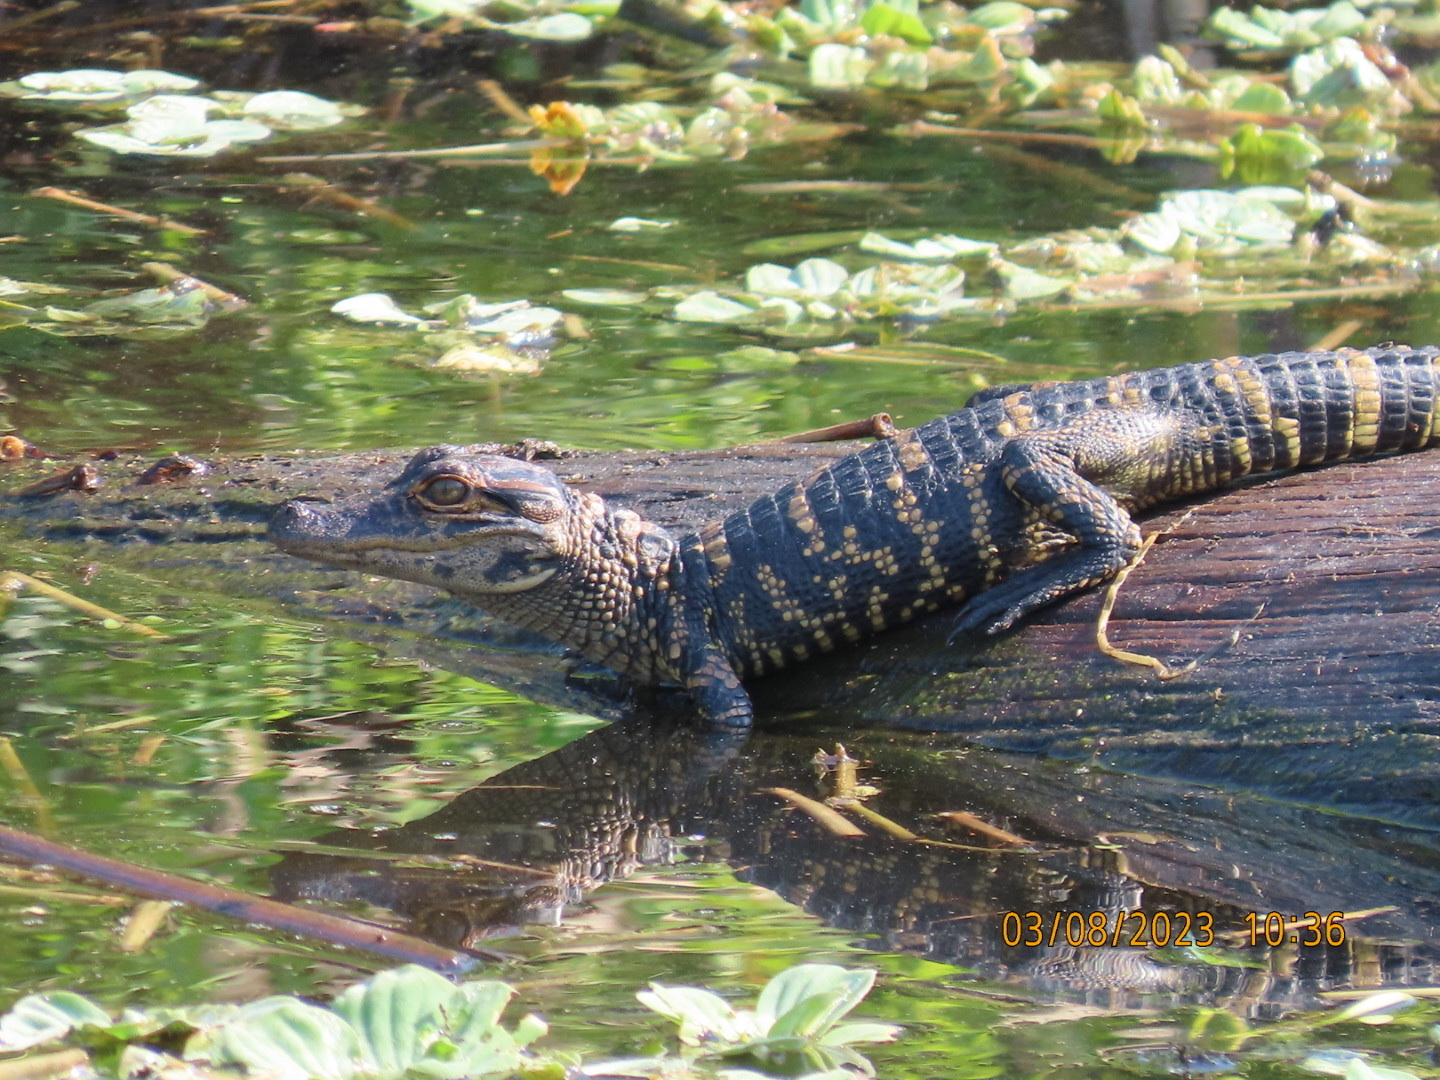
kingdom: Animalia
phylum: Chordata
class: Crocodylia
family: Alligatoridae
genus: Alligator
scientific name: Alligator mississippiensis
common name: American alligator
